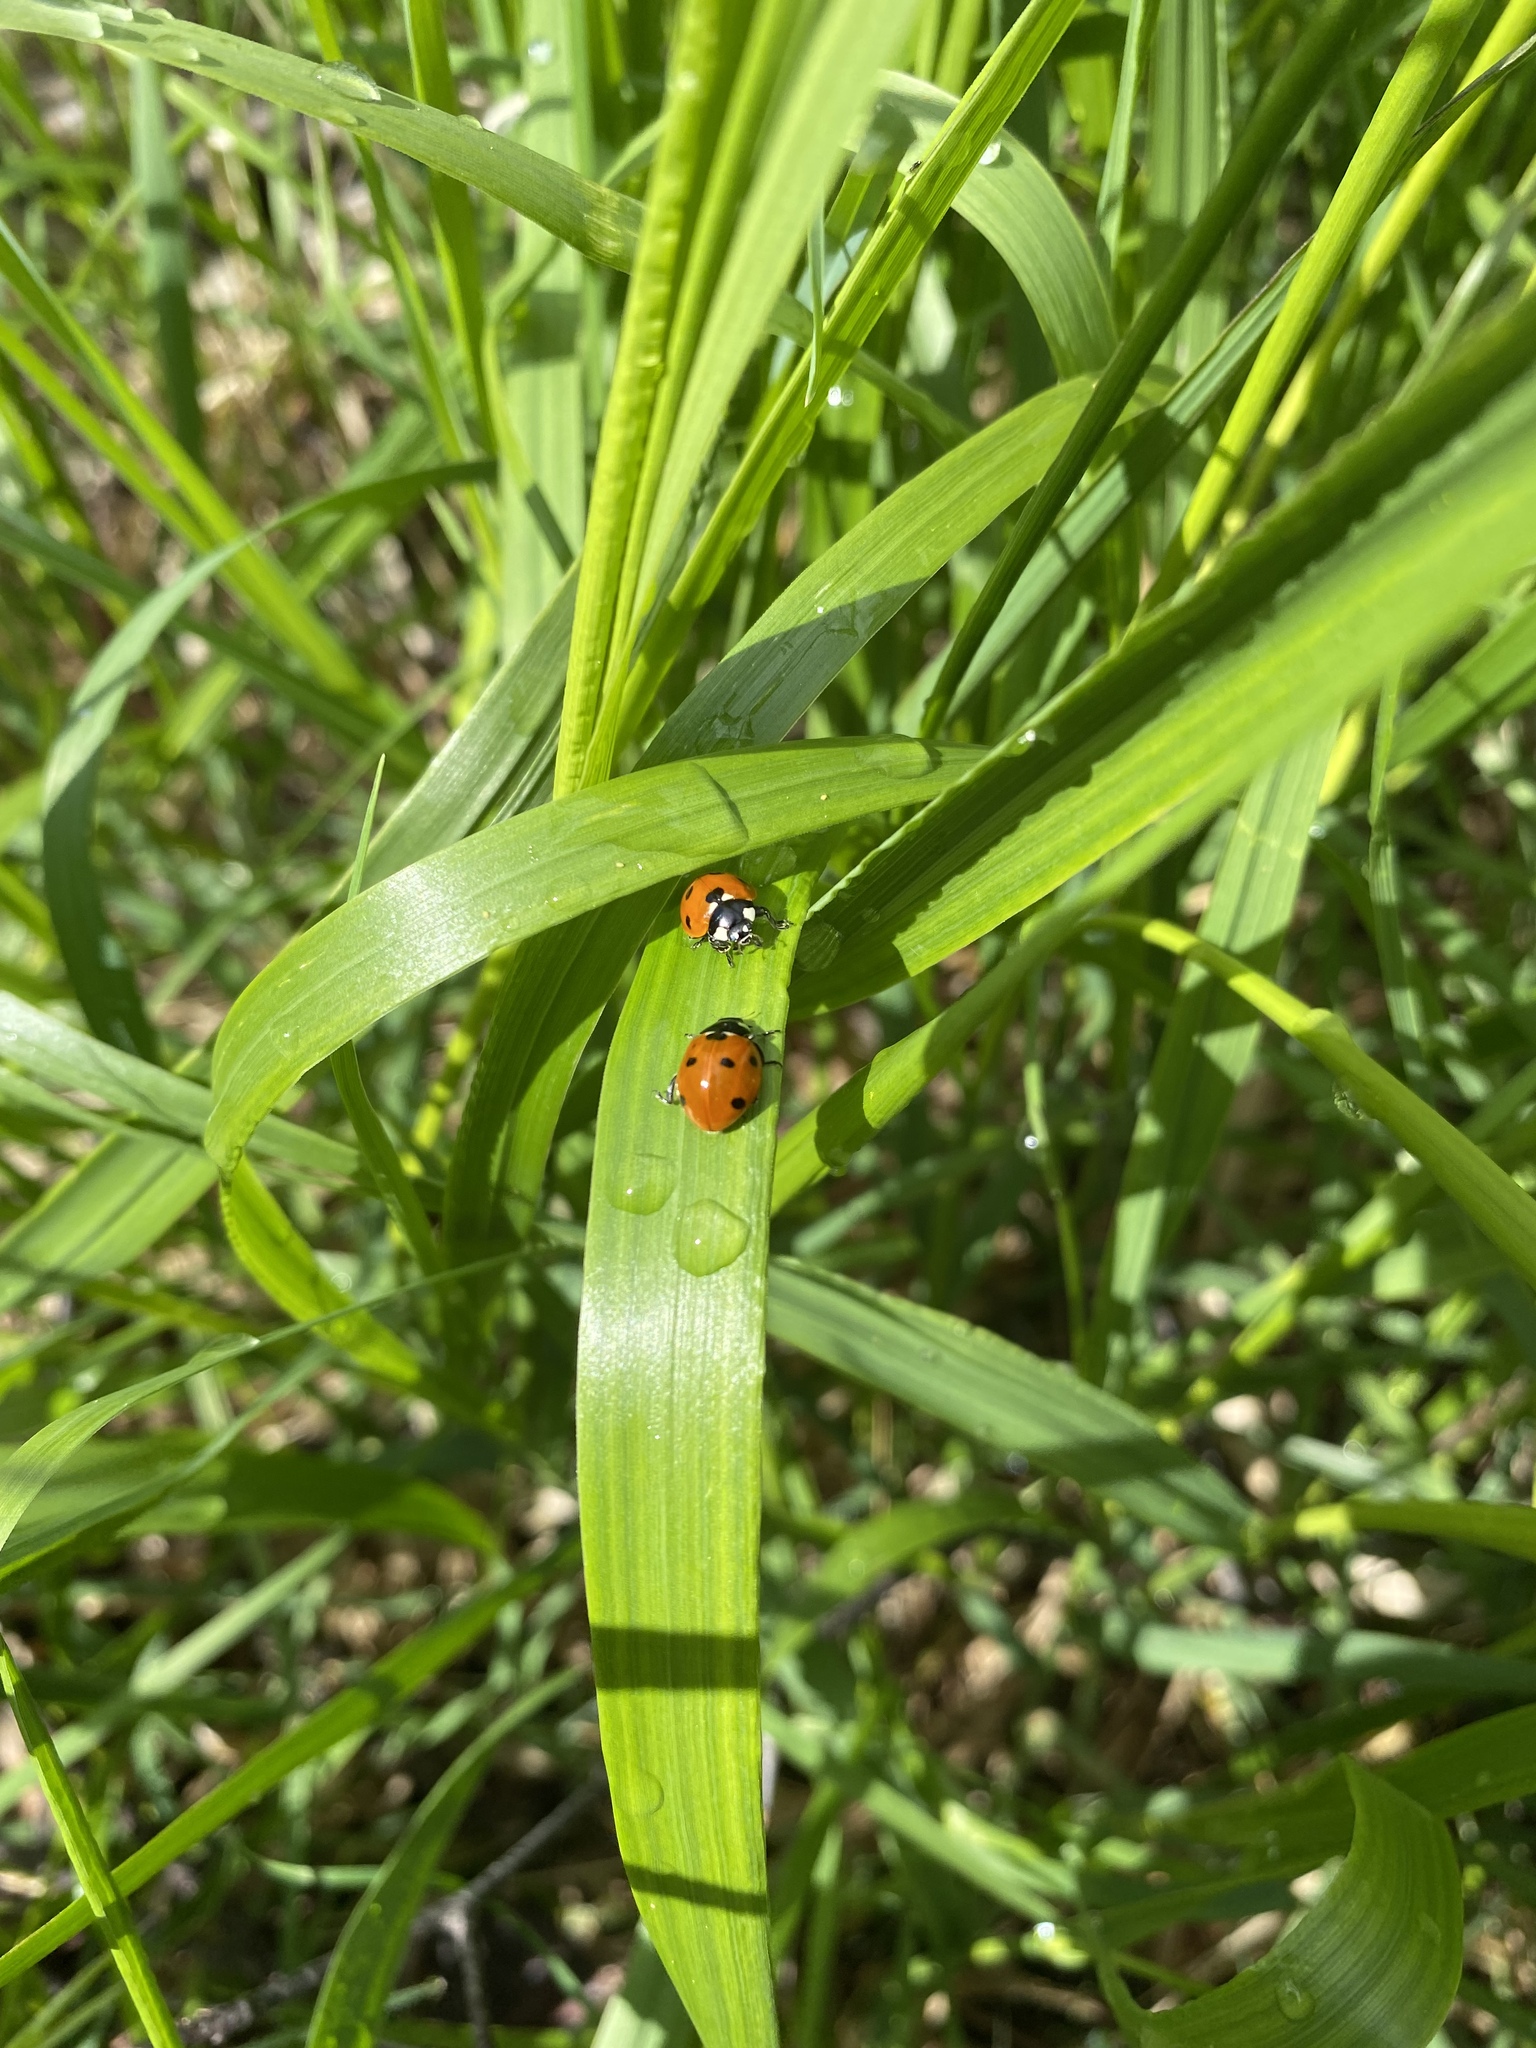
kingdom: Animalia
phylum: Arthropoda
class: Insecta
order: Coleoptera
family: Coccinellidae
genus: Coccinella
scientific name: Coccinella septempunctata
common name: Sevenspotted lady beetle
